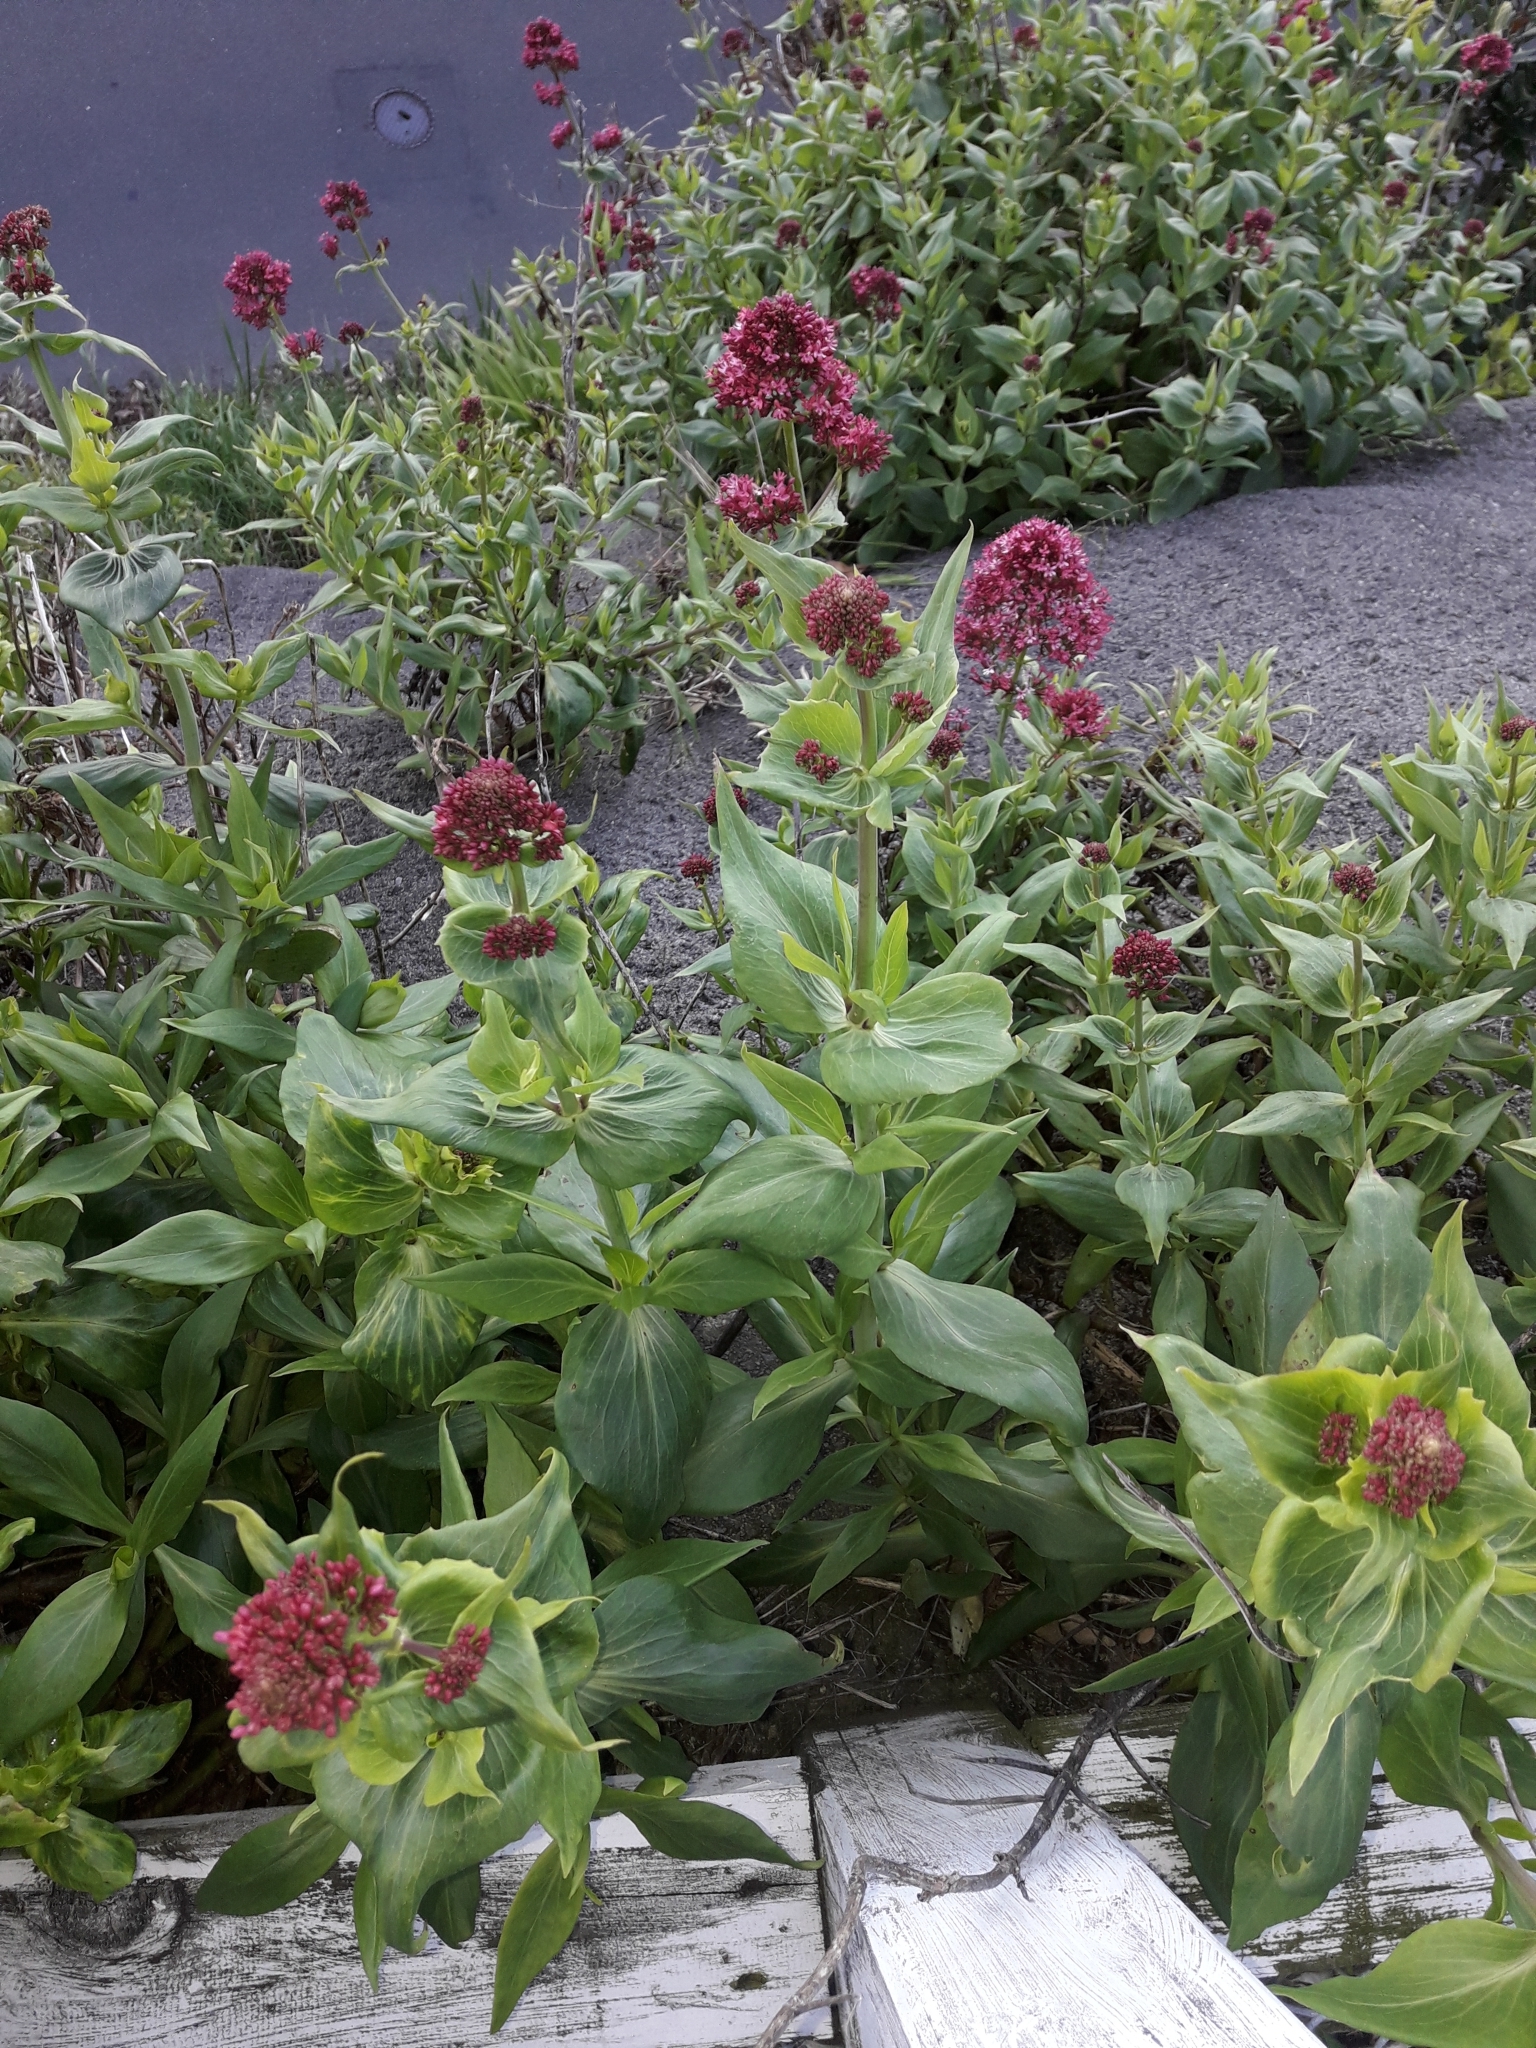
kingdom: Plantae
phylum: Tracheophyta
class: Magnoliopsida
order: Dipsacales
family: Caprifoliaceae
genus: Centranthus
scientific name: Centranthus ruber
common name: Red valerian
